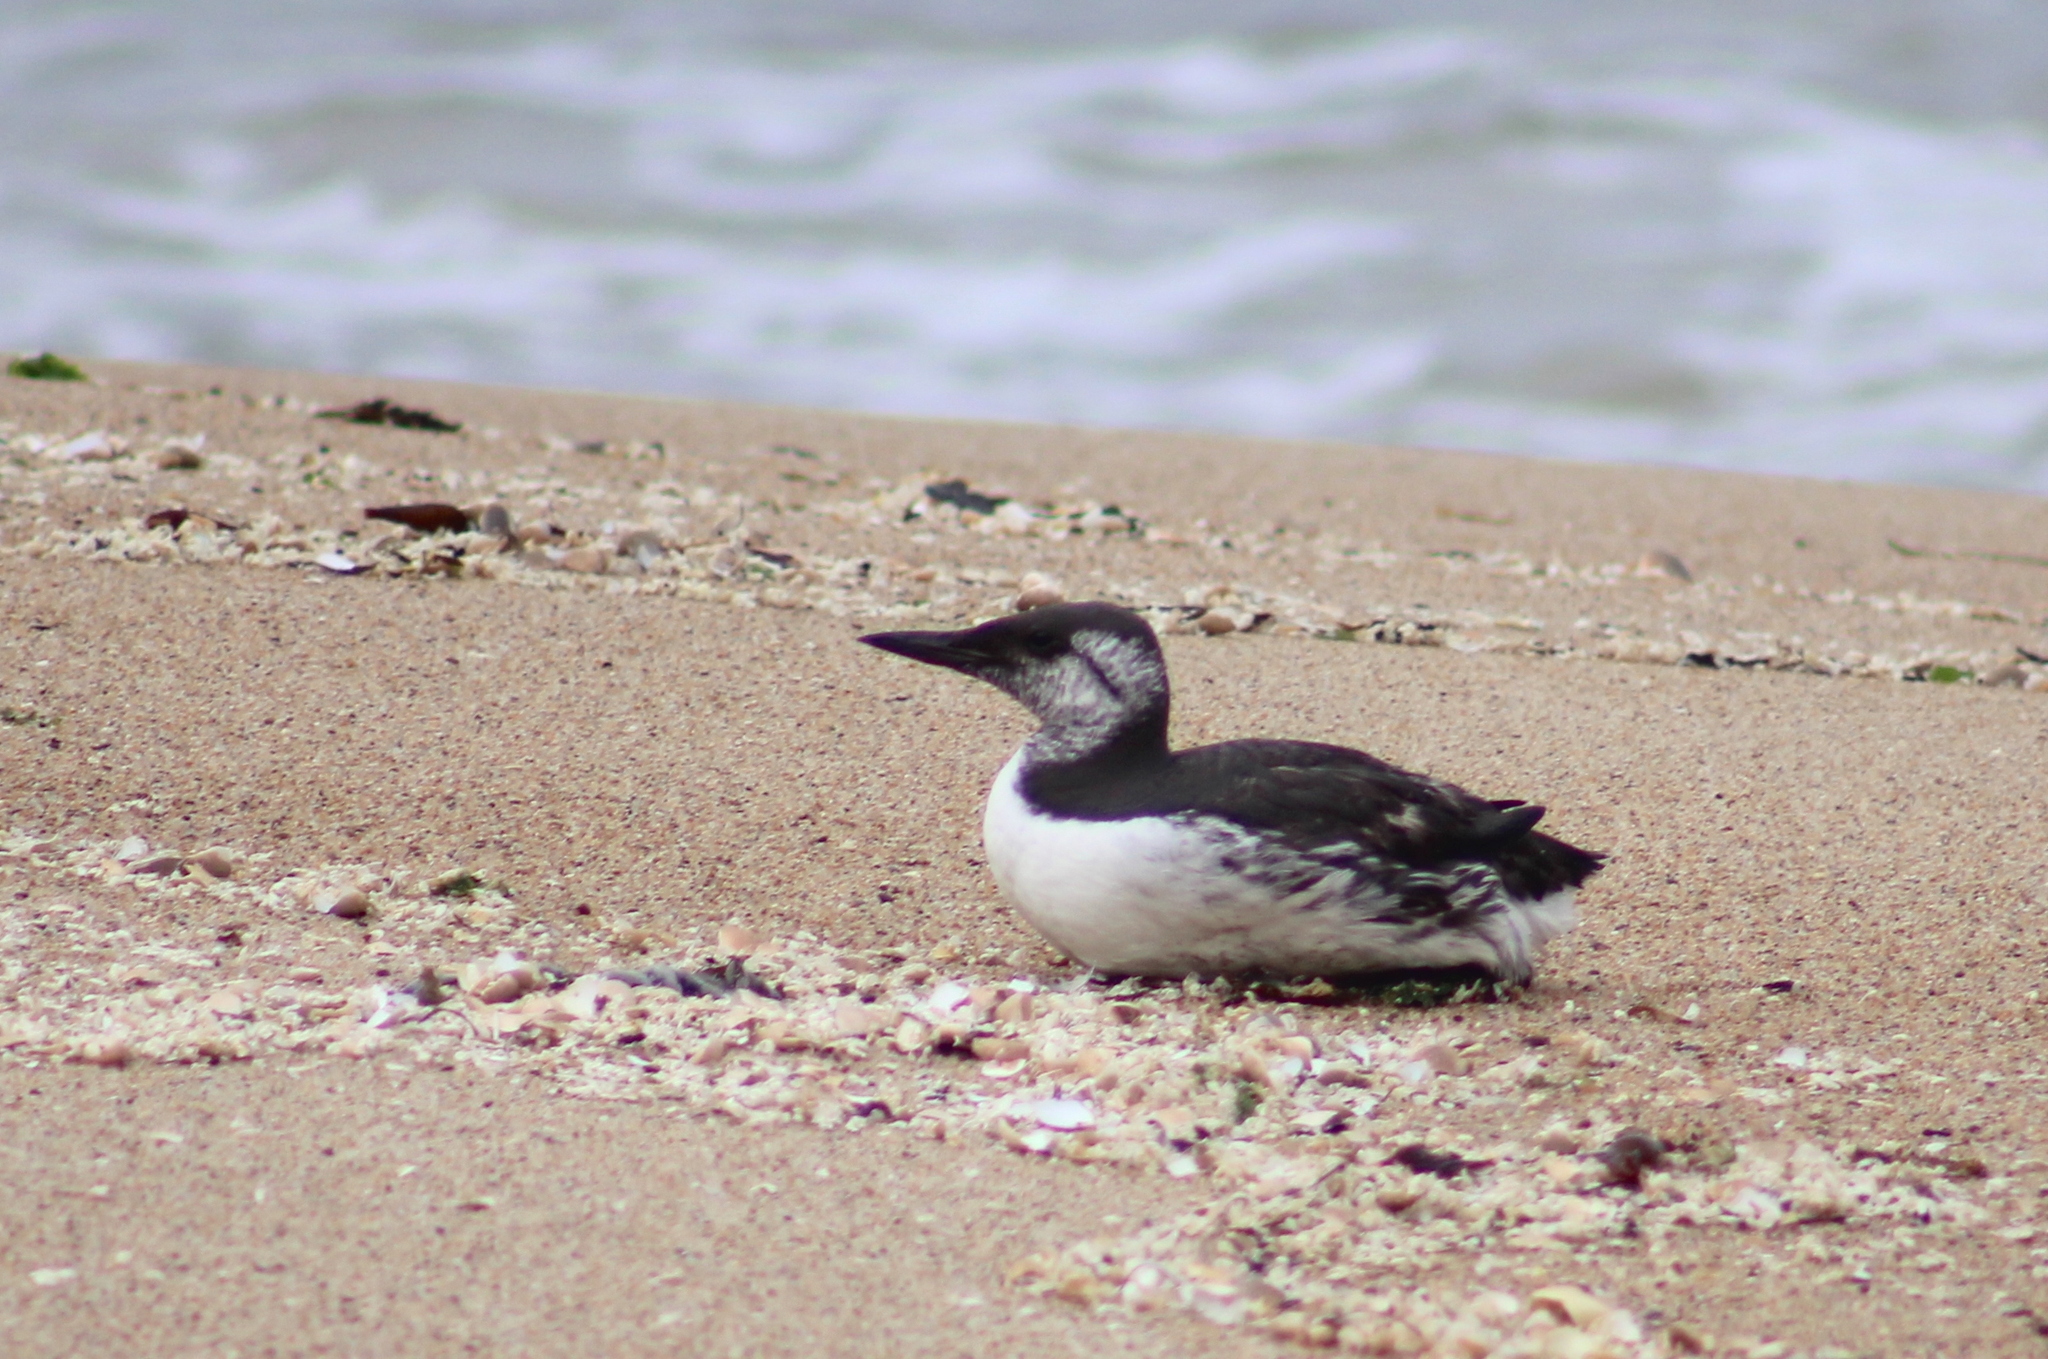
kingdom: Animalia
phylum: Chordata
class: Aves
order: Charadriiformes
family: Alcidae
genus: Uria
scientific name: Uria aalge
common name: Common murre
